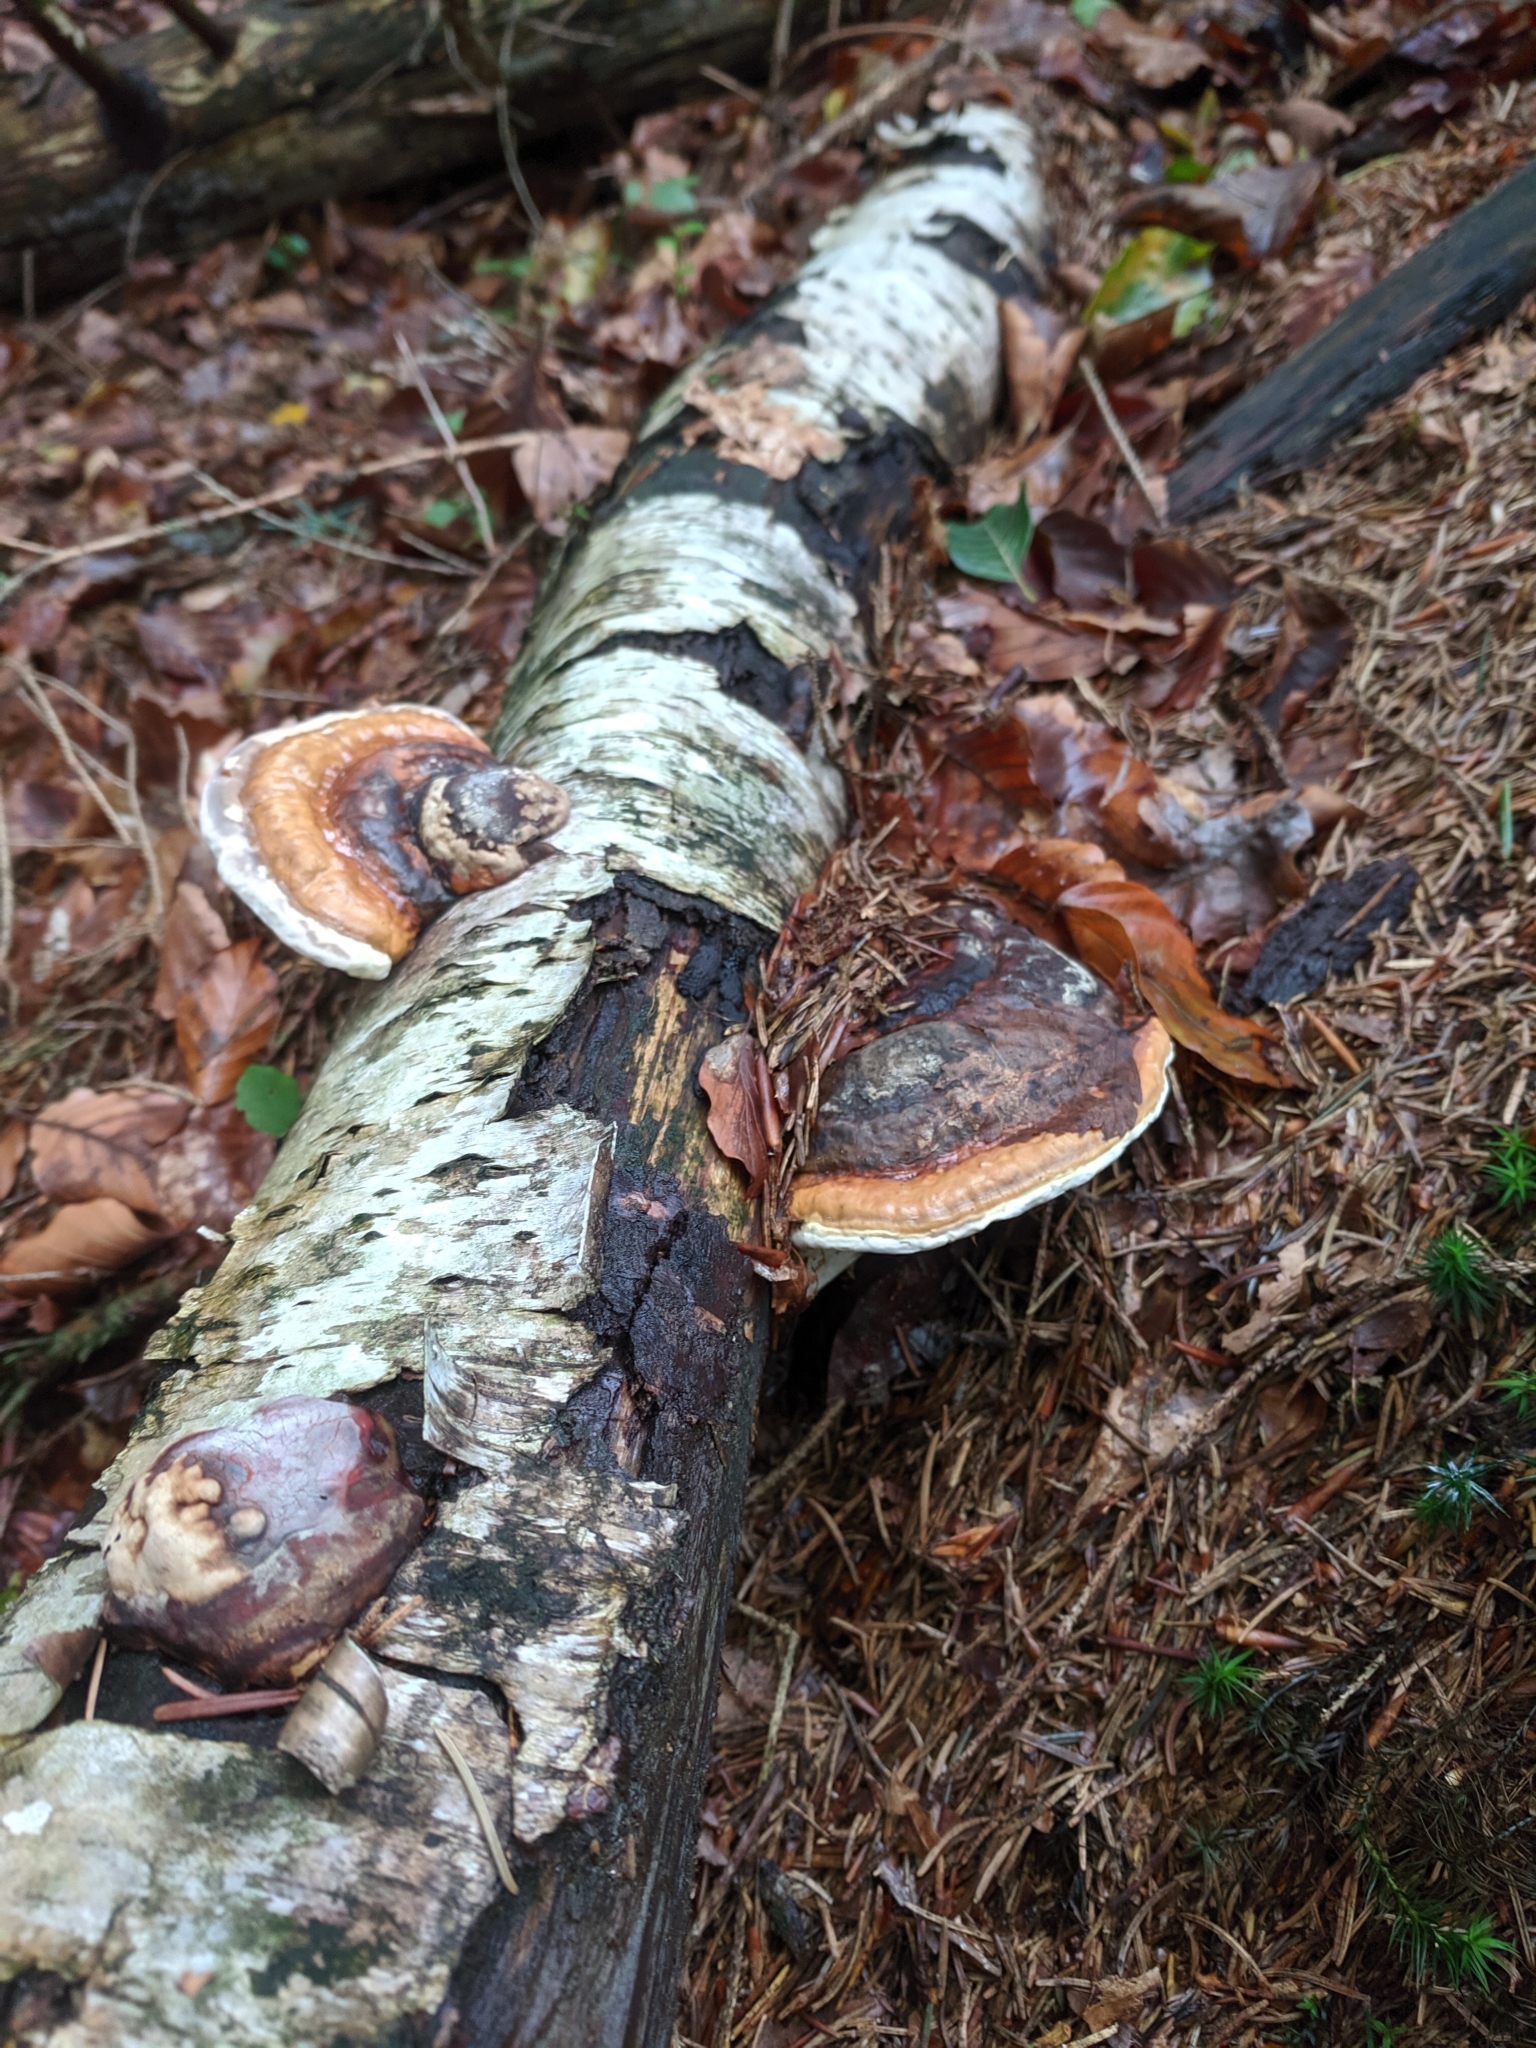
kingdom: Fungi
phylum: Basidiomycota
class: Agaricomycetes
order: Polyporales
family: Fomitopsidaceae
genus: Fomitopsis
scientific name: Fomitopsis pinicola
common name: Red-belted bracket
